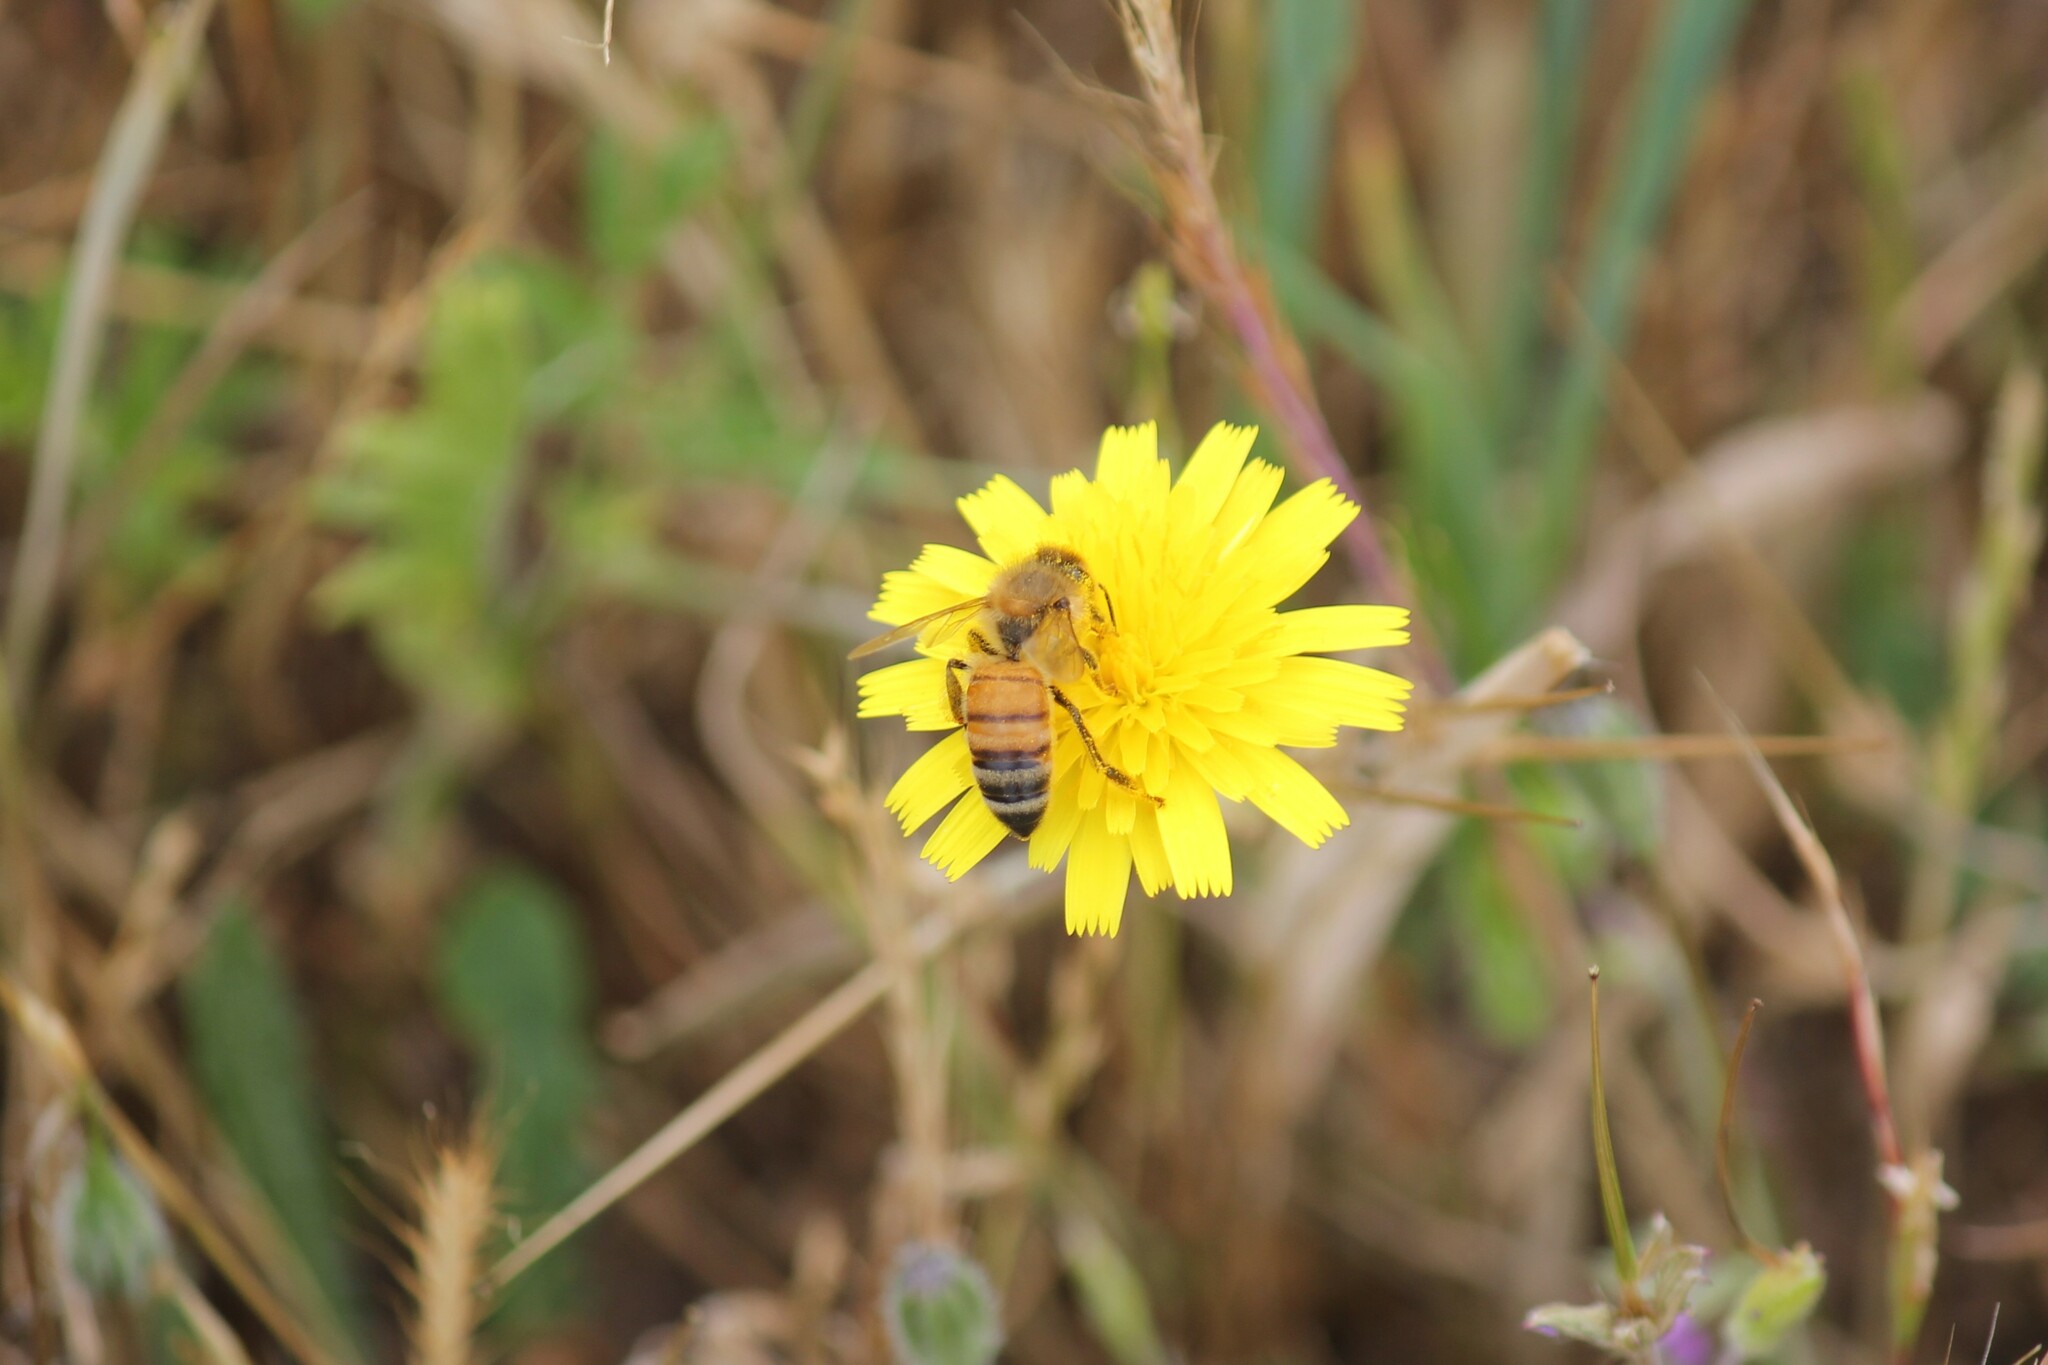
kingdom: Animalia
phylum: Arthropoda
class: Insecta
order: Hymenoptera
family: Apidae
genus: Apis
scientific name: Apis mellifera
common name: Honey bee
